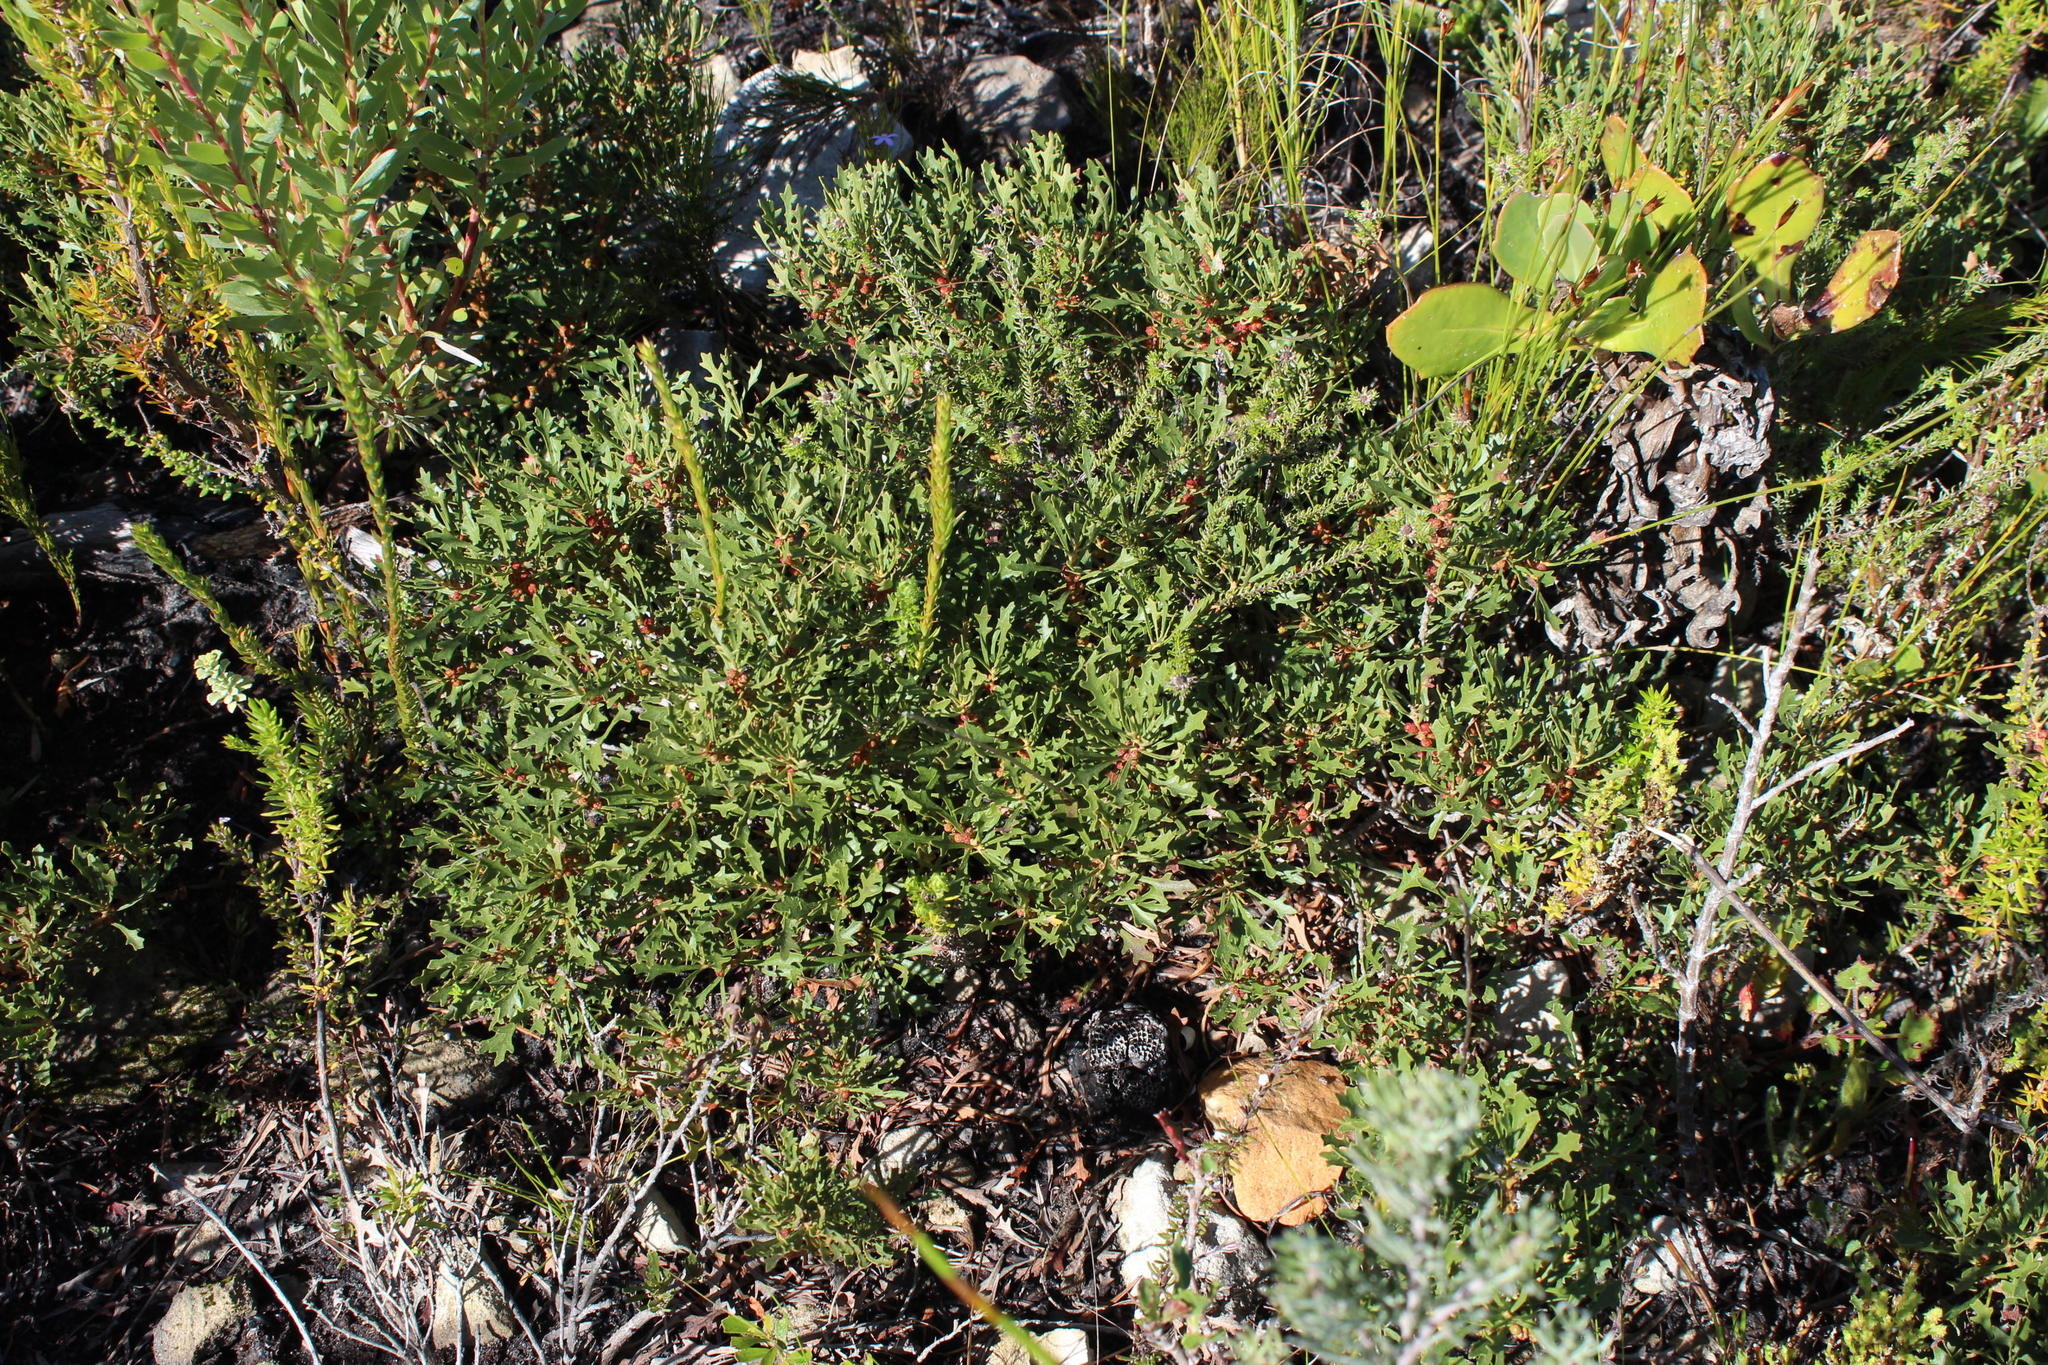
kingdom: Plantae
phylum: Tracheophyta
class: Magnoliopsida
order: Fagales
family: Myricaceae
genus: Morella
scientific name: Morella quercifolia
